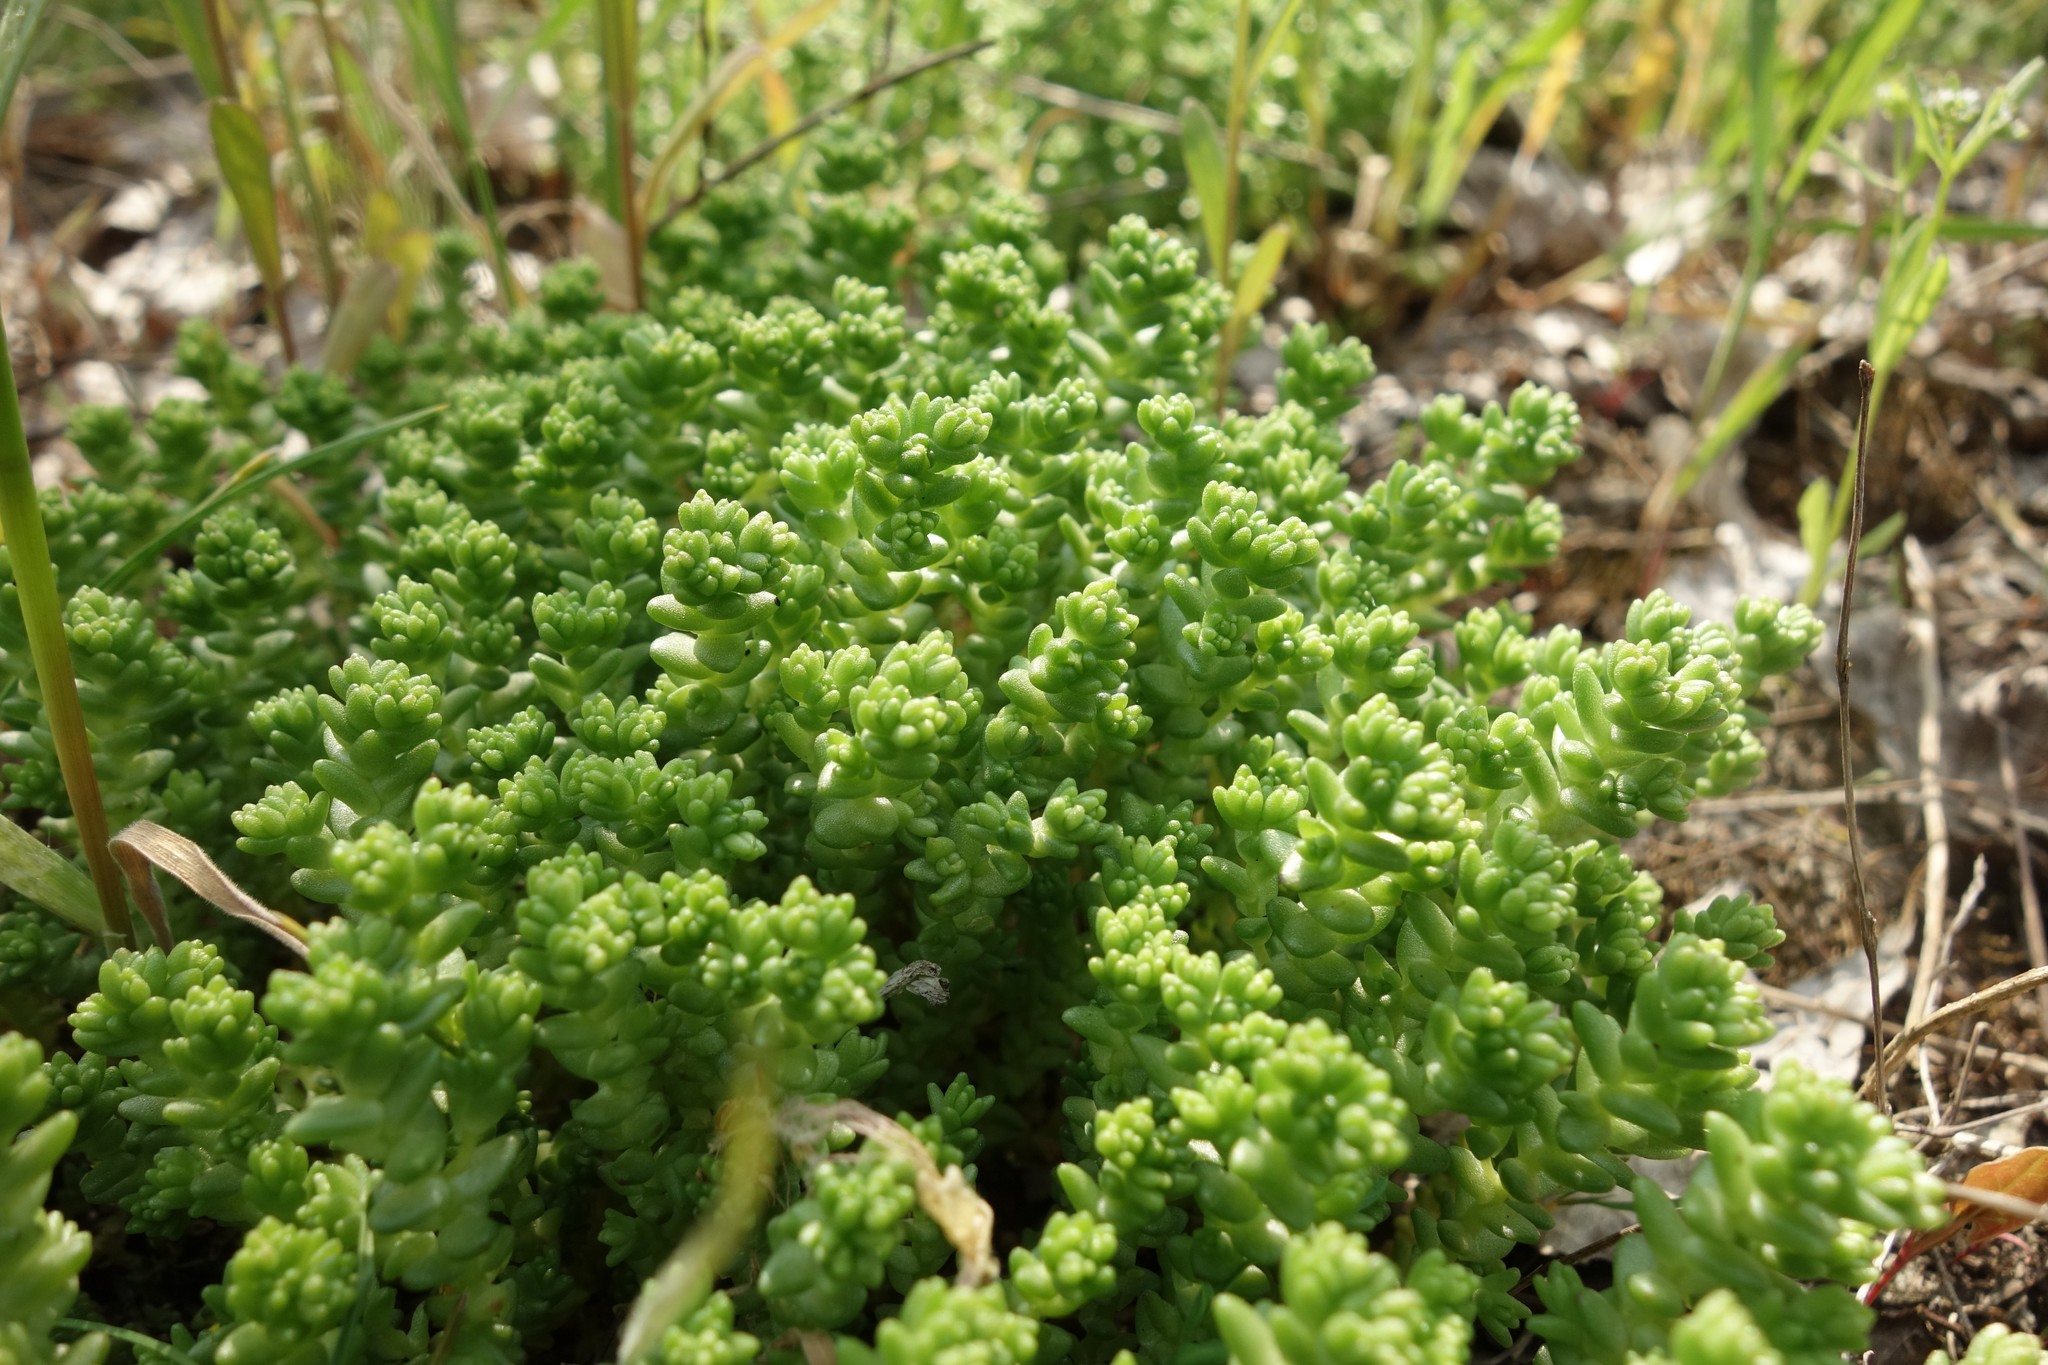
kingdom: Plantae
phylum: Tracheophyta
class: Magnoliopsida
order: Saxifragales
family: Crassulaceae
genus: Sedum
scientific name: Sedum acre
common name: Biting stonecrop
